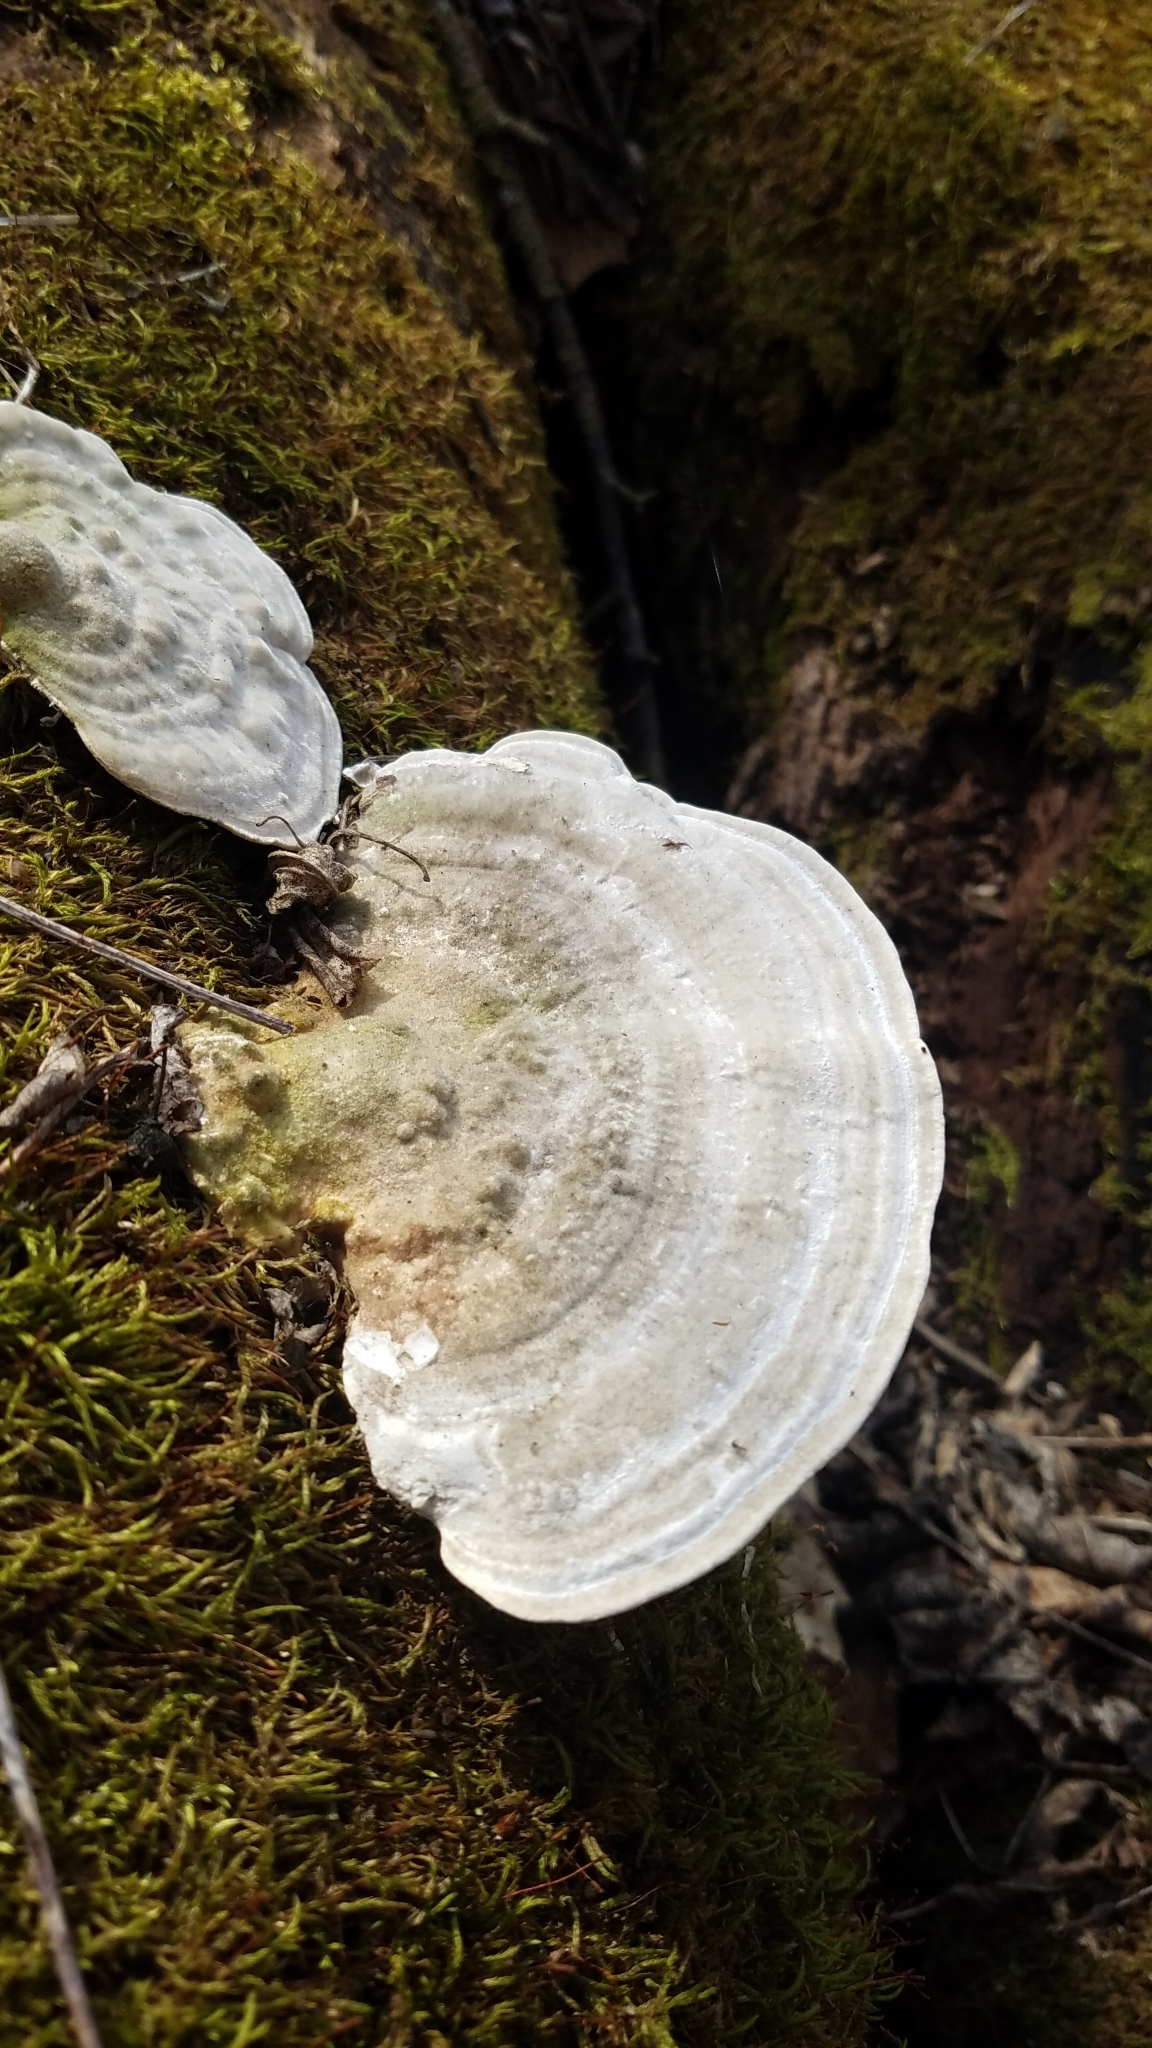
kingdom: Fungi
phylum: Basidiomycota
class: Agaricomycetes
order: Polyporales
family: Polyporaceae
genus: Trametes
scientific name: Trametes lactinea
